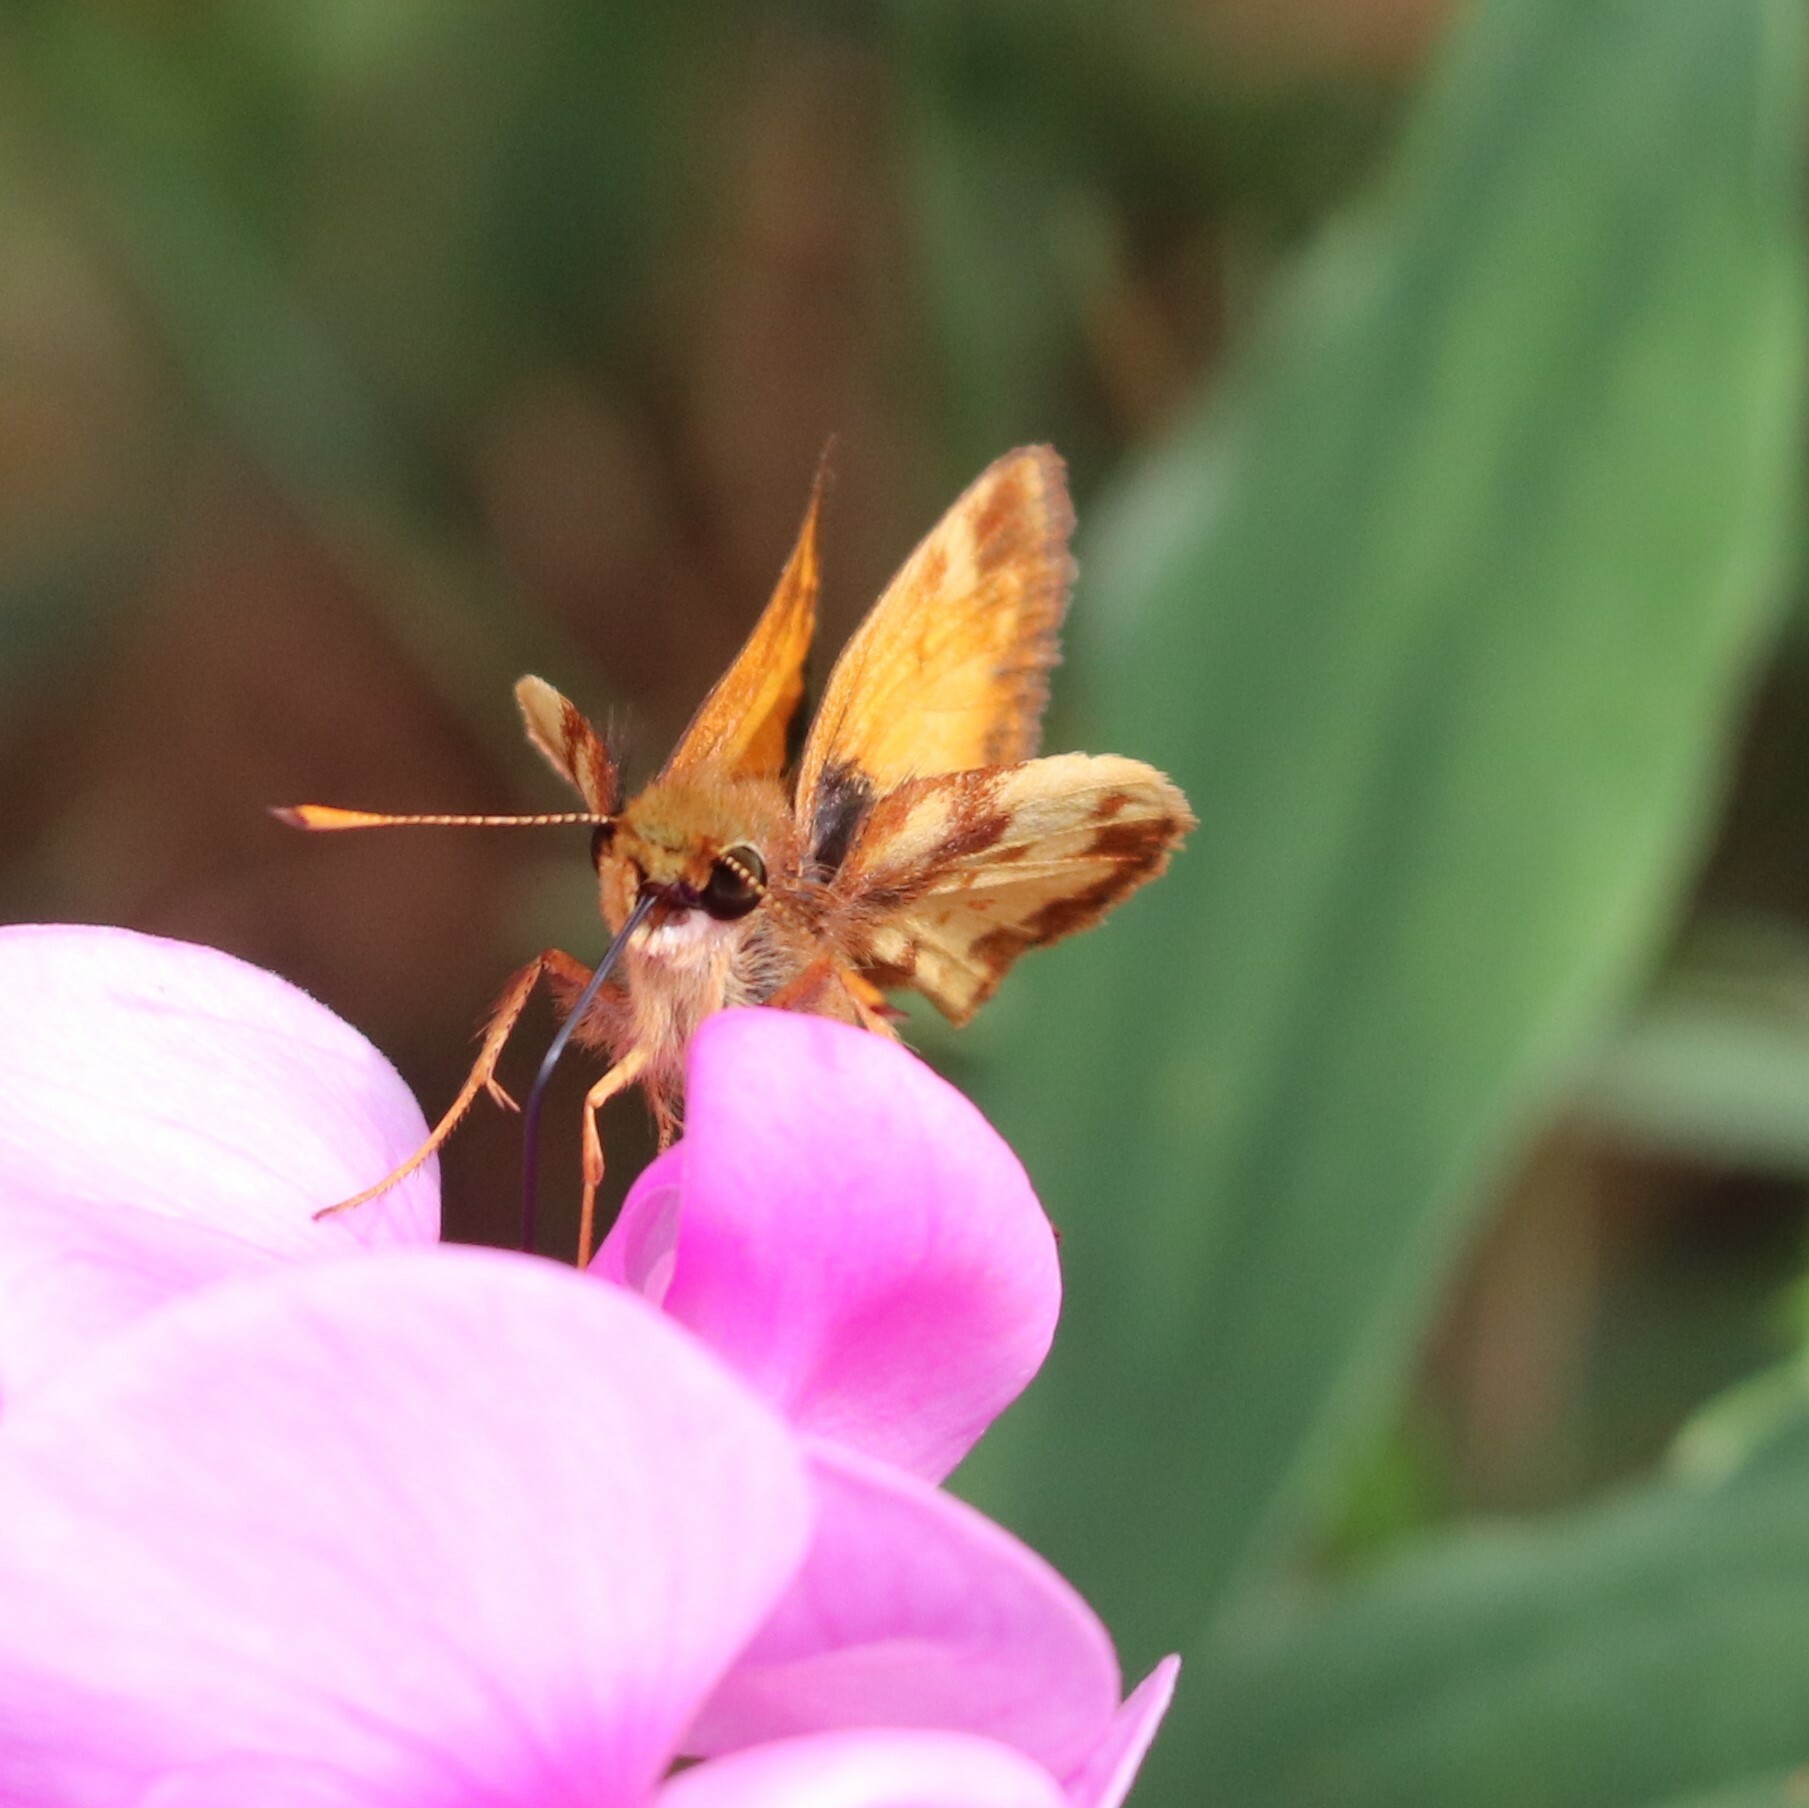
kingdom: Animalia
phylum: Arthropoda
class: Insecta
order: Lepidoptera
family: Hesperiidae
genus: Lon
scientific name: Lon zabulon
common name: Zabulon skipper
